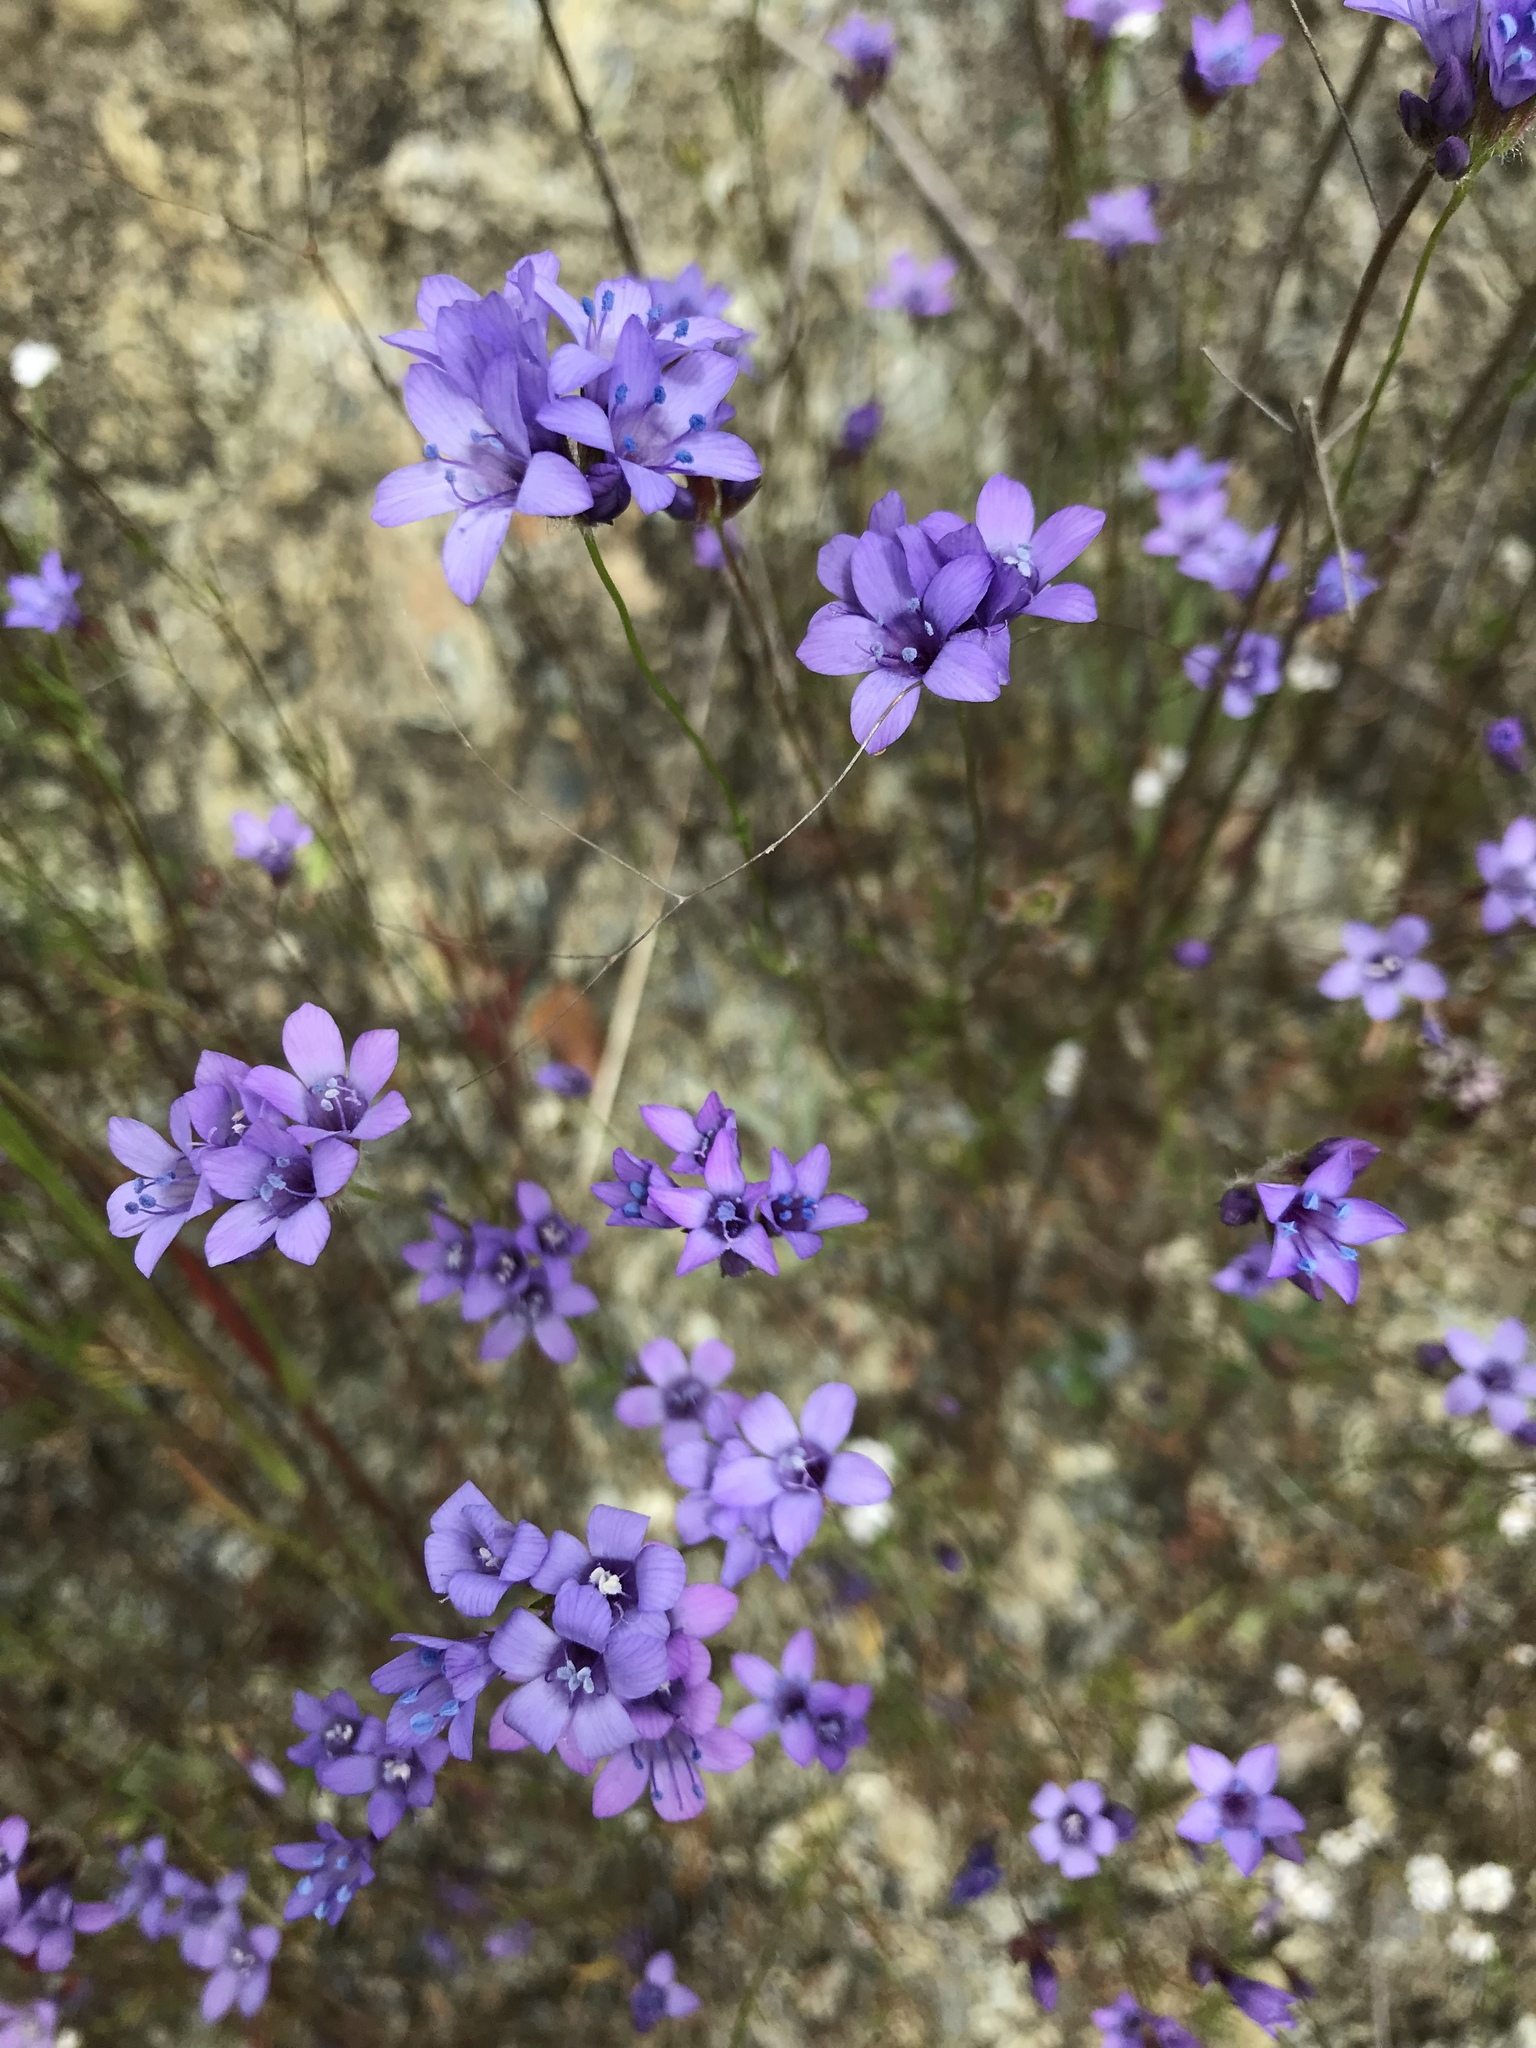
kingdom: Plantae
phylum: Tracheophyta
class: Magnoliopsida
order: Ericales
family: Polemoniaceae
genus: Gilia
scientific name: Gilia achilleifolia
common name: California gily-flower
